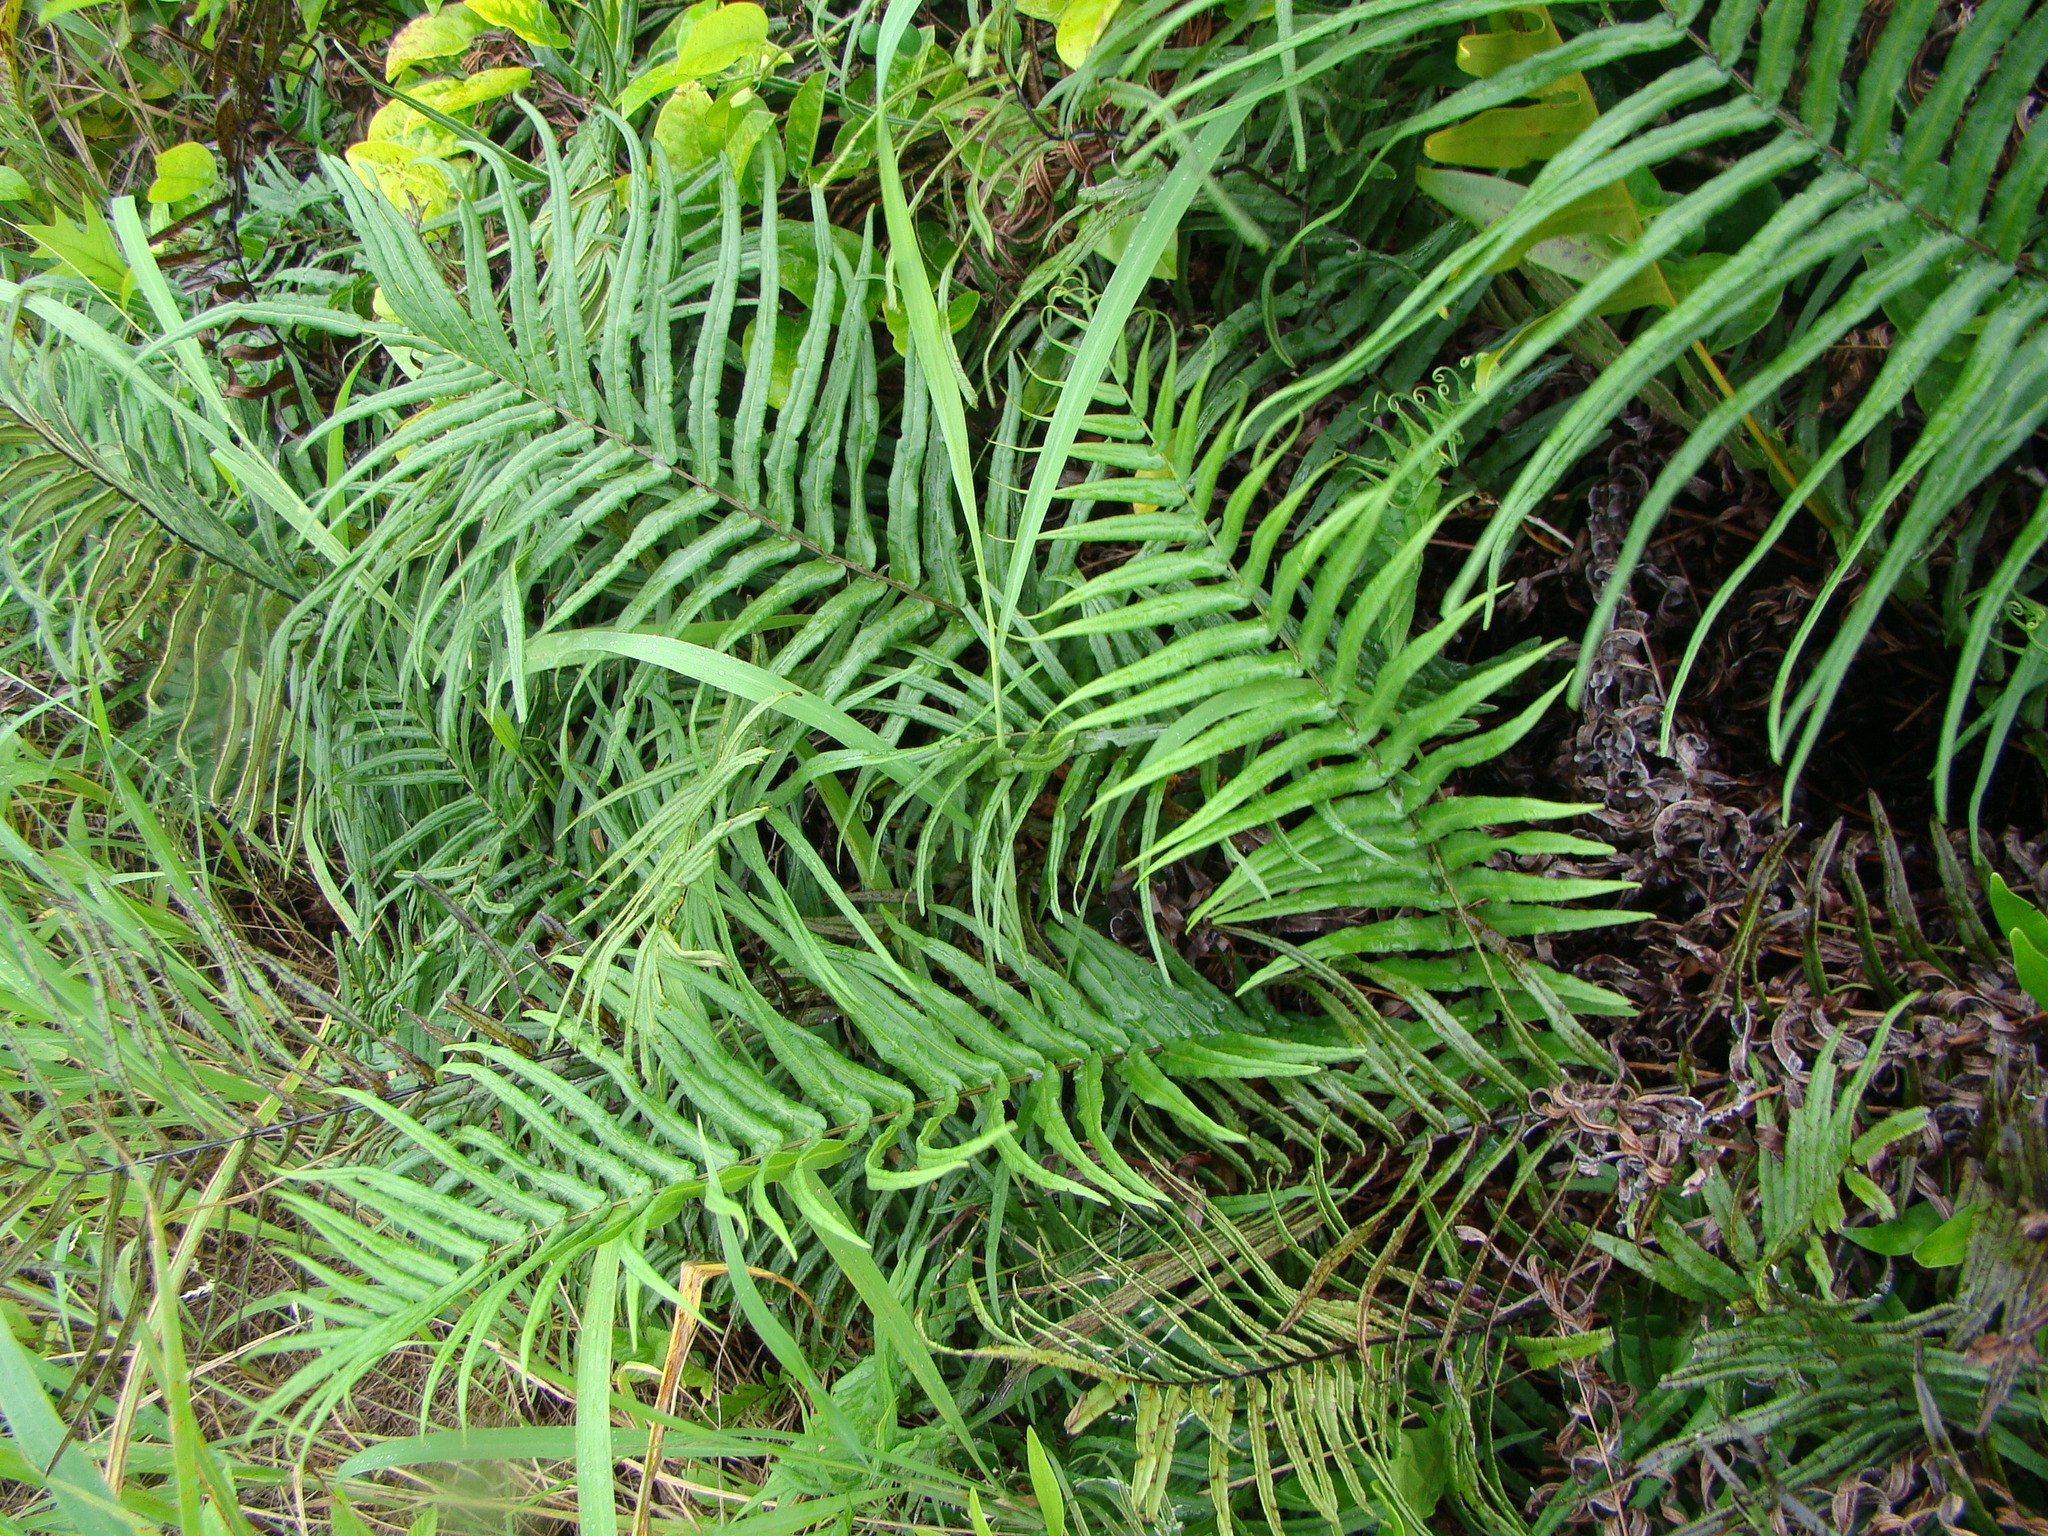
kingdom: Plantae
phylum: Tracheophyta
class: Polypodiopsida
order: Polypodiales
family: Pteridaceae
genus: Pteris
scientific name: Pteris vittata
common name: Ladder brake
